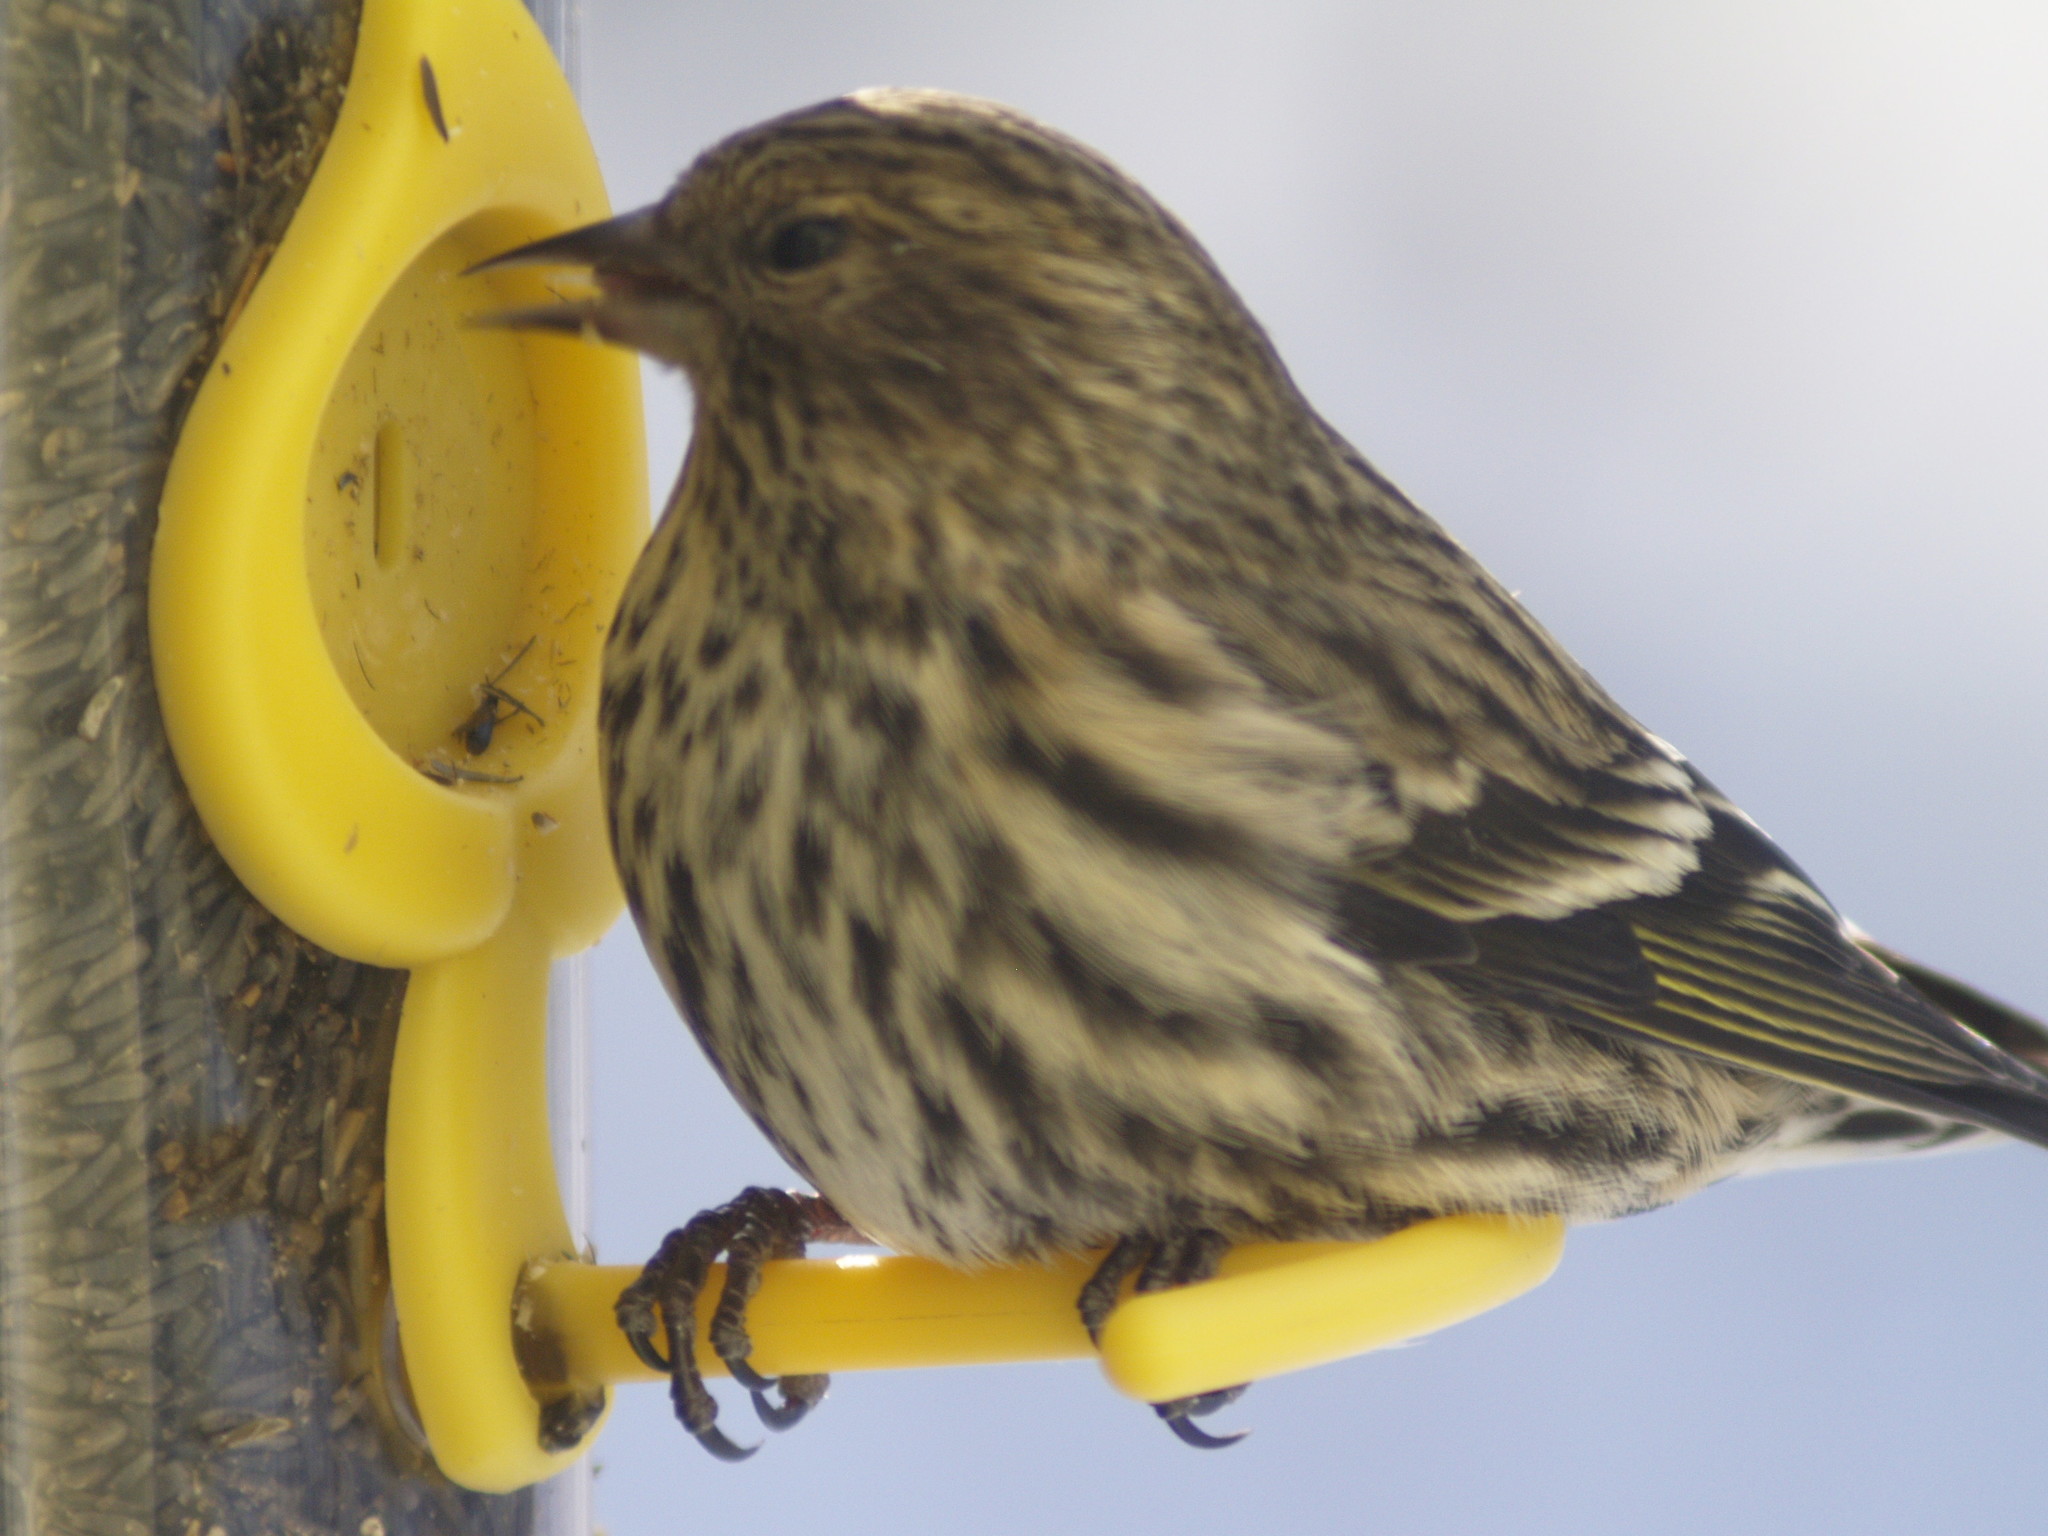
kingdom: Animalia
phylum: Chordata
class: Aves
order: Passeriformes
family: Fringillidae
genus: Spinus
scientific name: Spinus pinus
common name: Pine siskin
